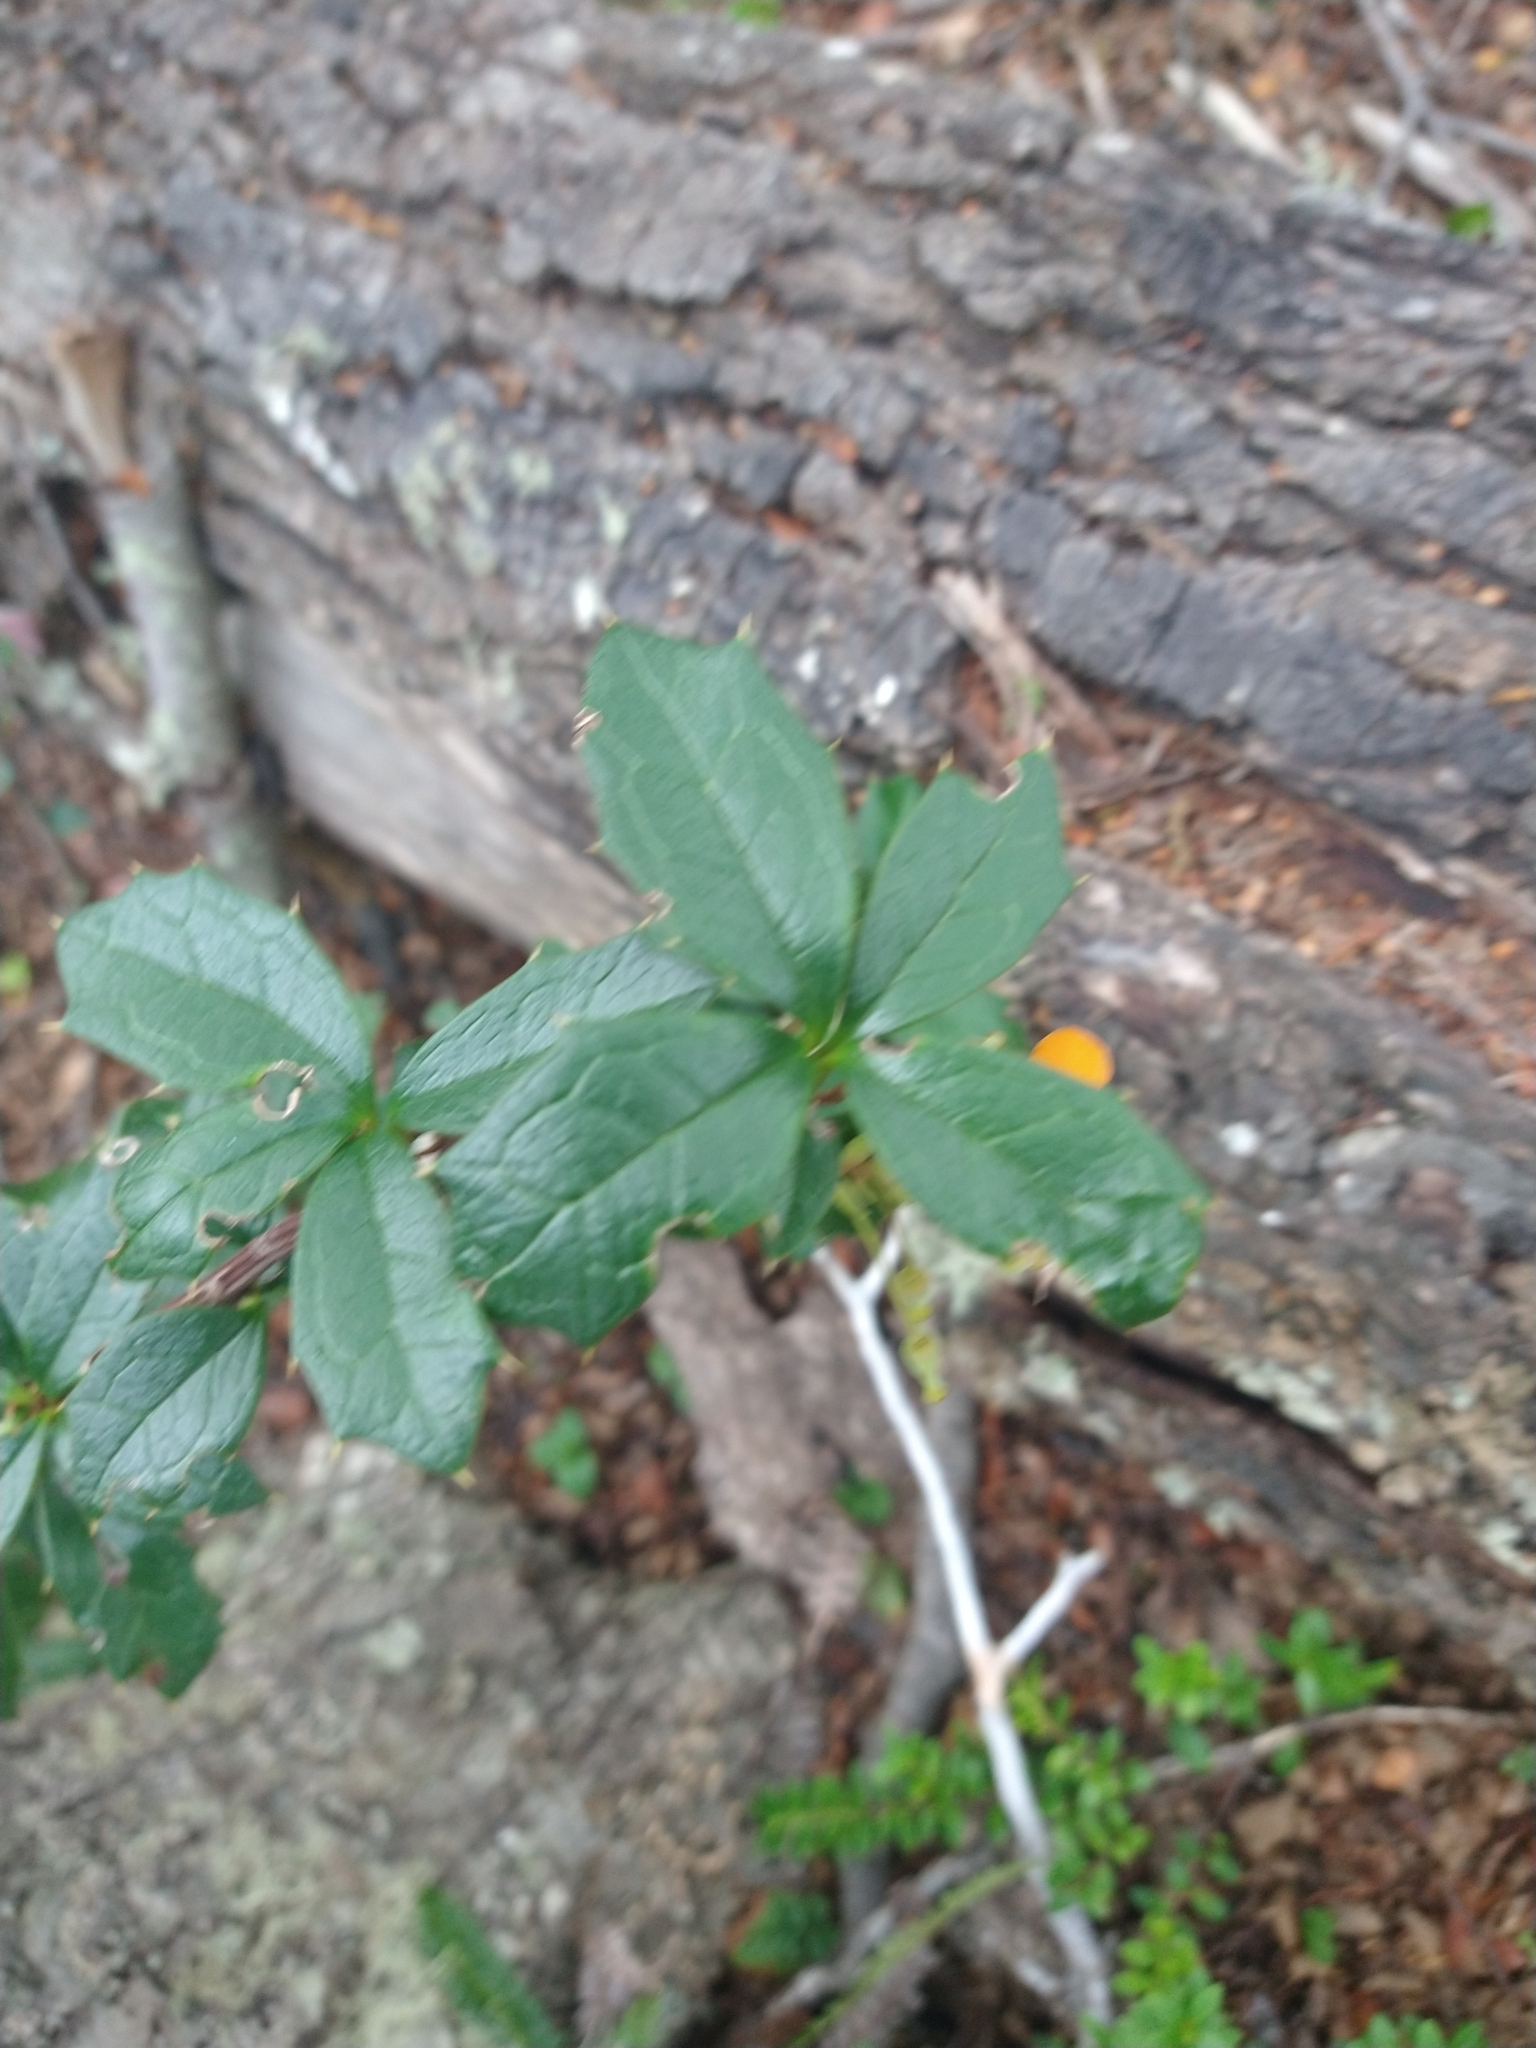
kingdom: Plantae
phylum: Tracheophyta
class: Magnoliopsida
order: Ranunculales
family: Berberidaceae
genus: Berberis
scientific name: Berberis ilicifolia
